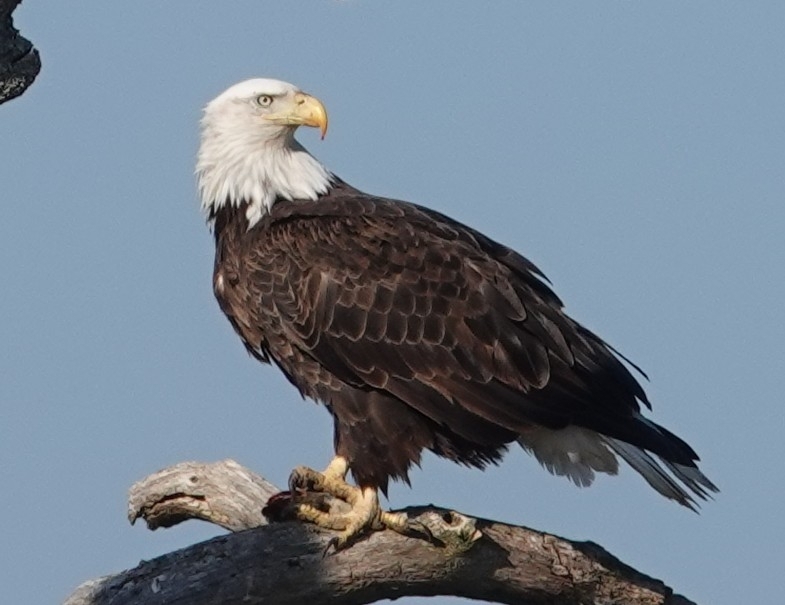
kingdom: Animalia
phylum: Chordata
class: Aves
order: Accipitriformes
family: Accipitridae
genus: Haliaeetus
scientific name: Haliaeetus leucocephalus
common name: Bald eagle
